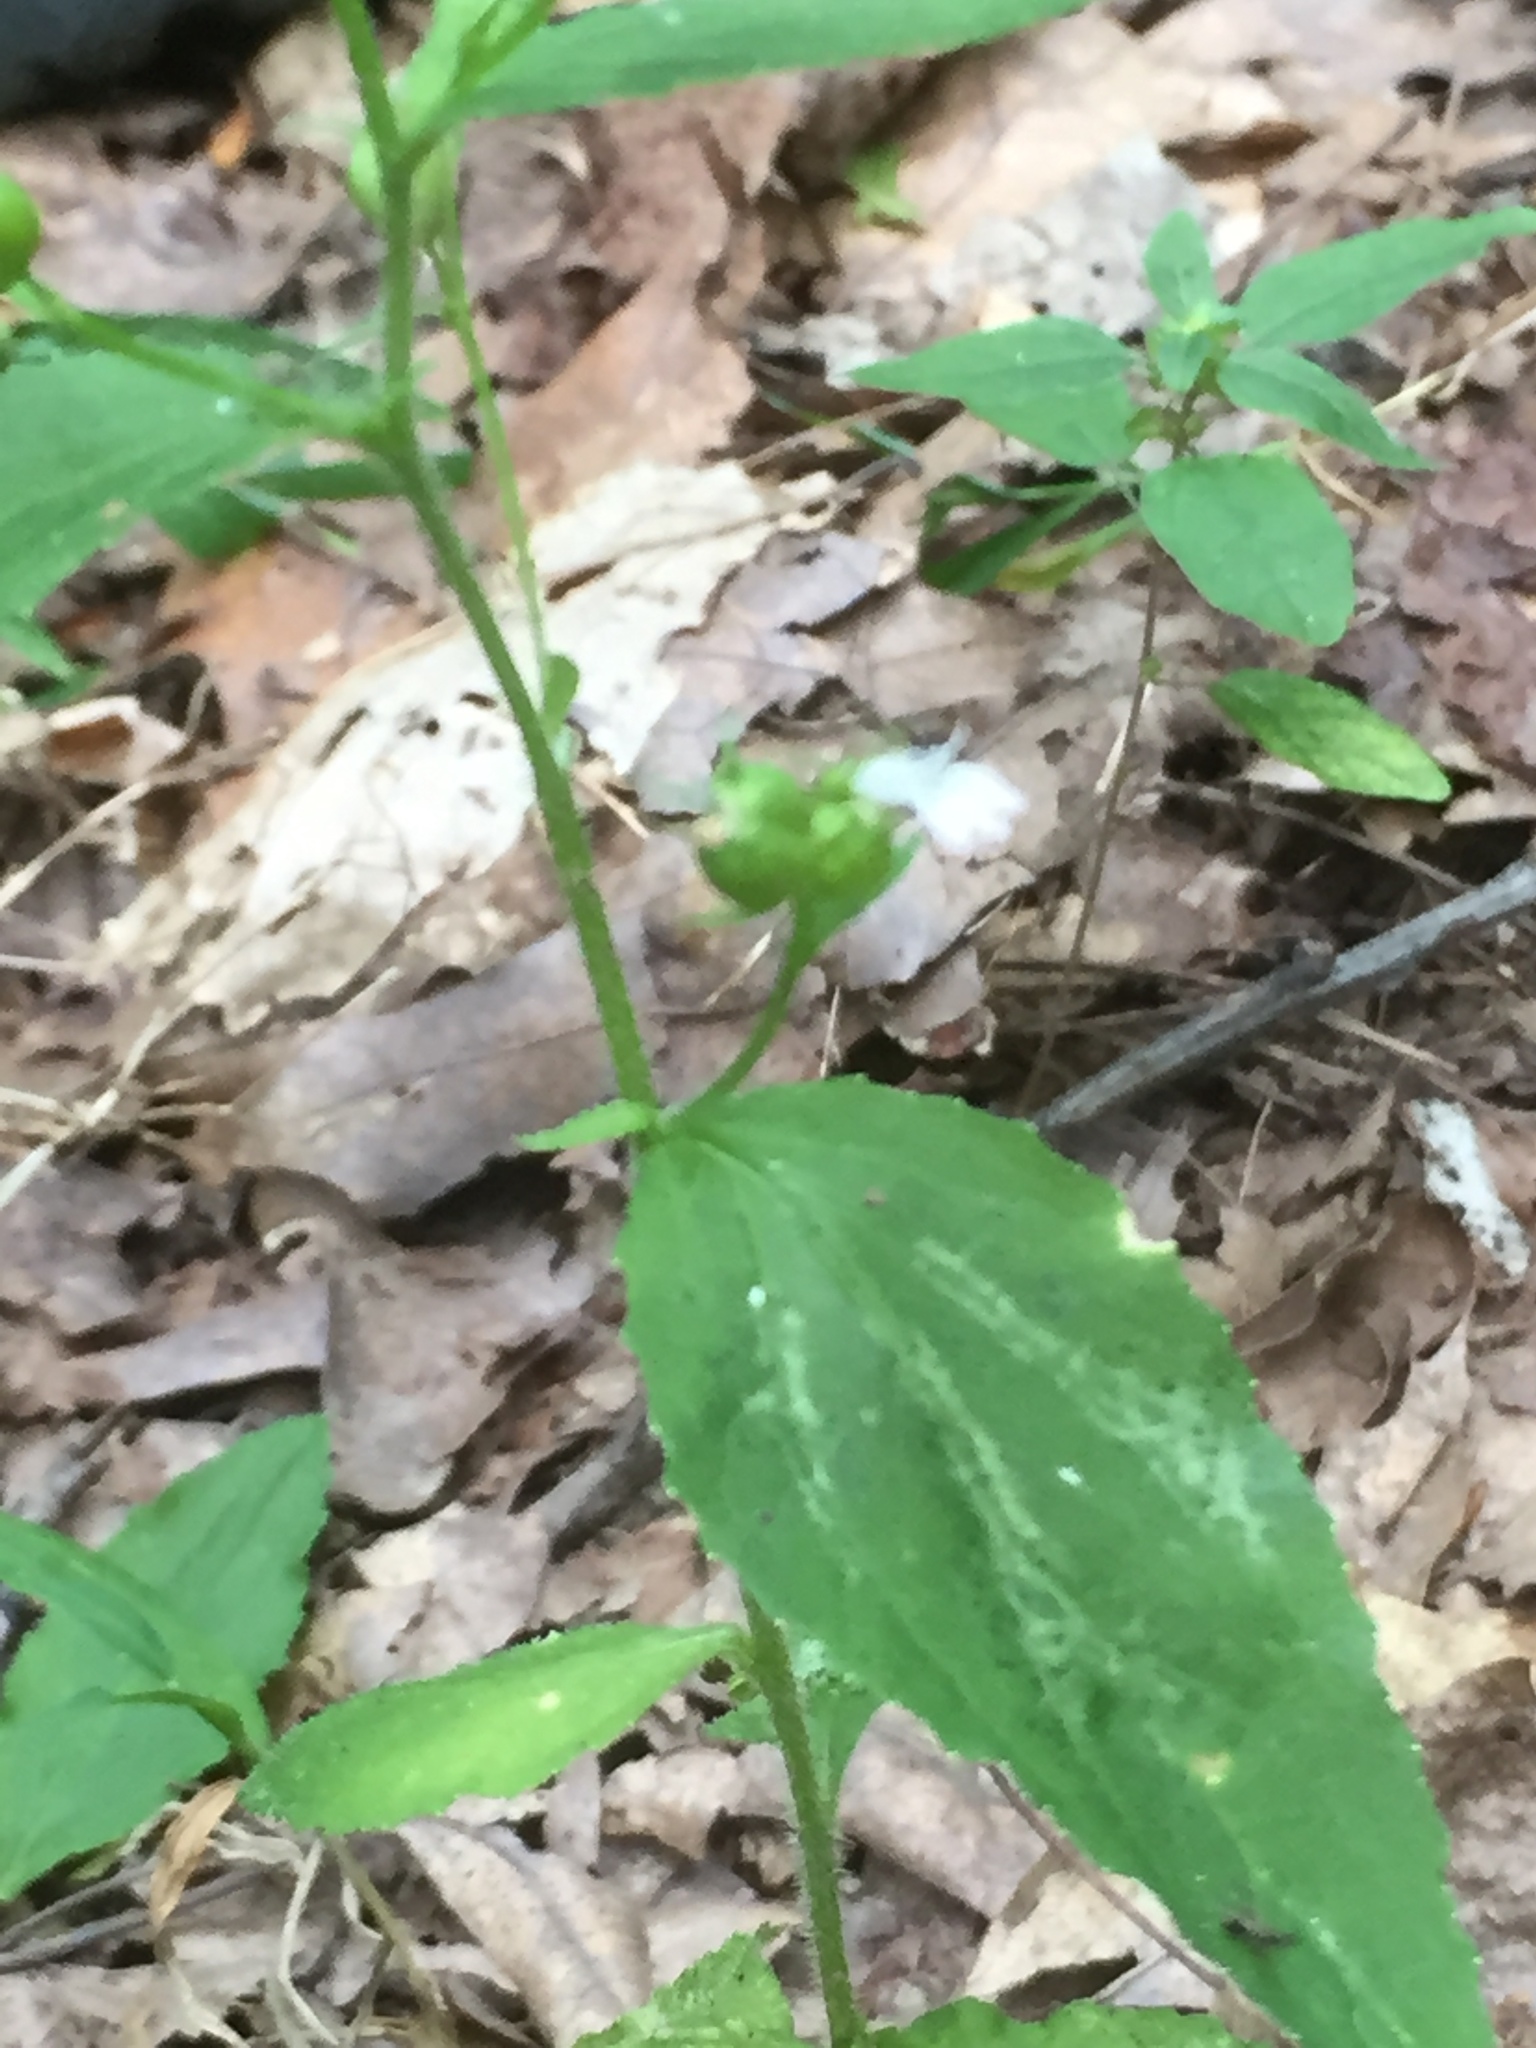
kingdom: Plantae
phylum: Tracheophyta
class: Magnoliopsida
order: Asterales
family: Campanulaceae
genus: Lobelia
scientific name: Lobelia inflata
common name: Indian tobacco
